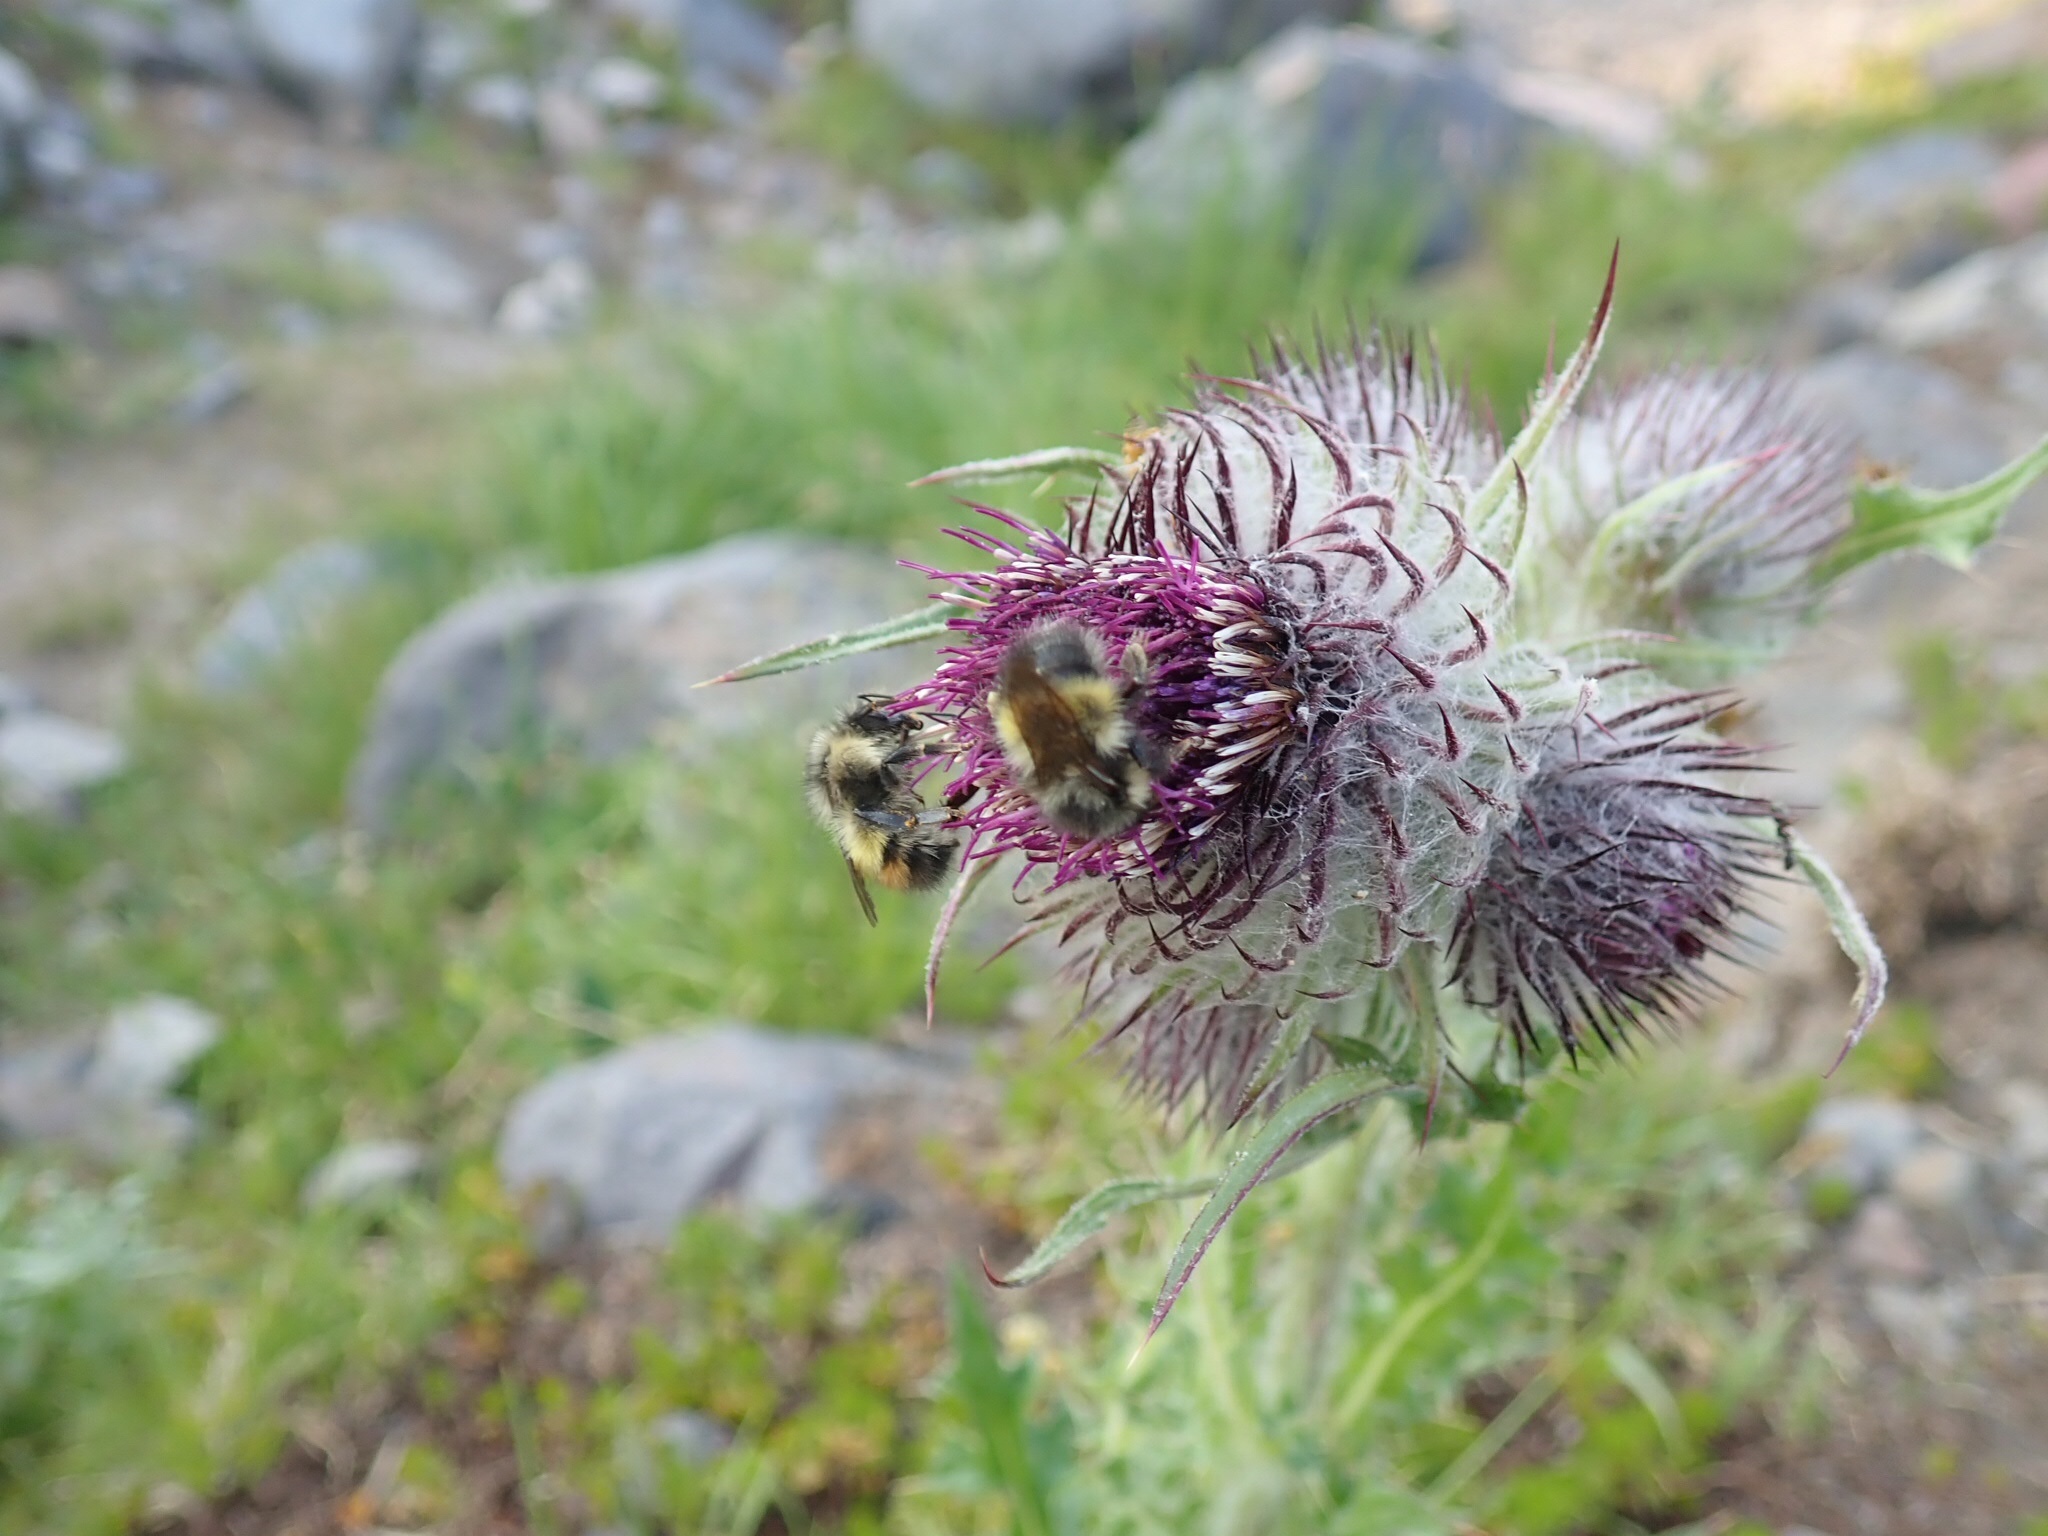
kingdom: Plantae
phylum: Tracheophyta
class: Magnoliopsida
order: Asterales
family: Asteraceae
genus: Cirsium
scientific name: Cirsium edule
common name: Indian thistle
